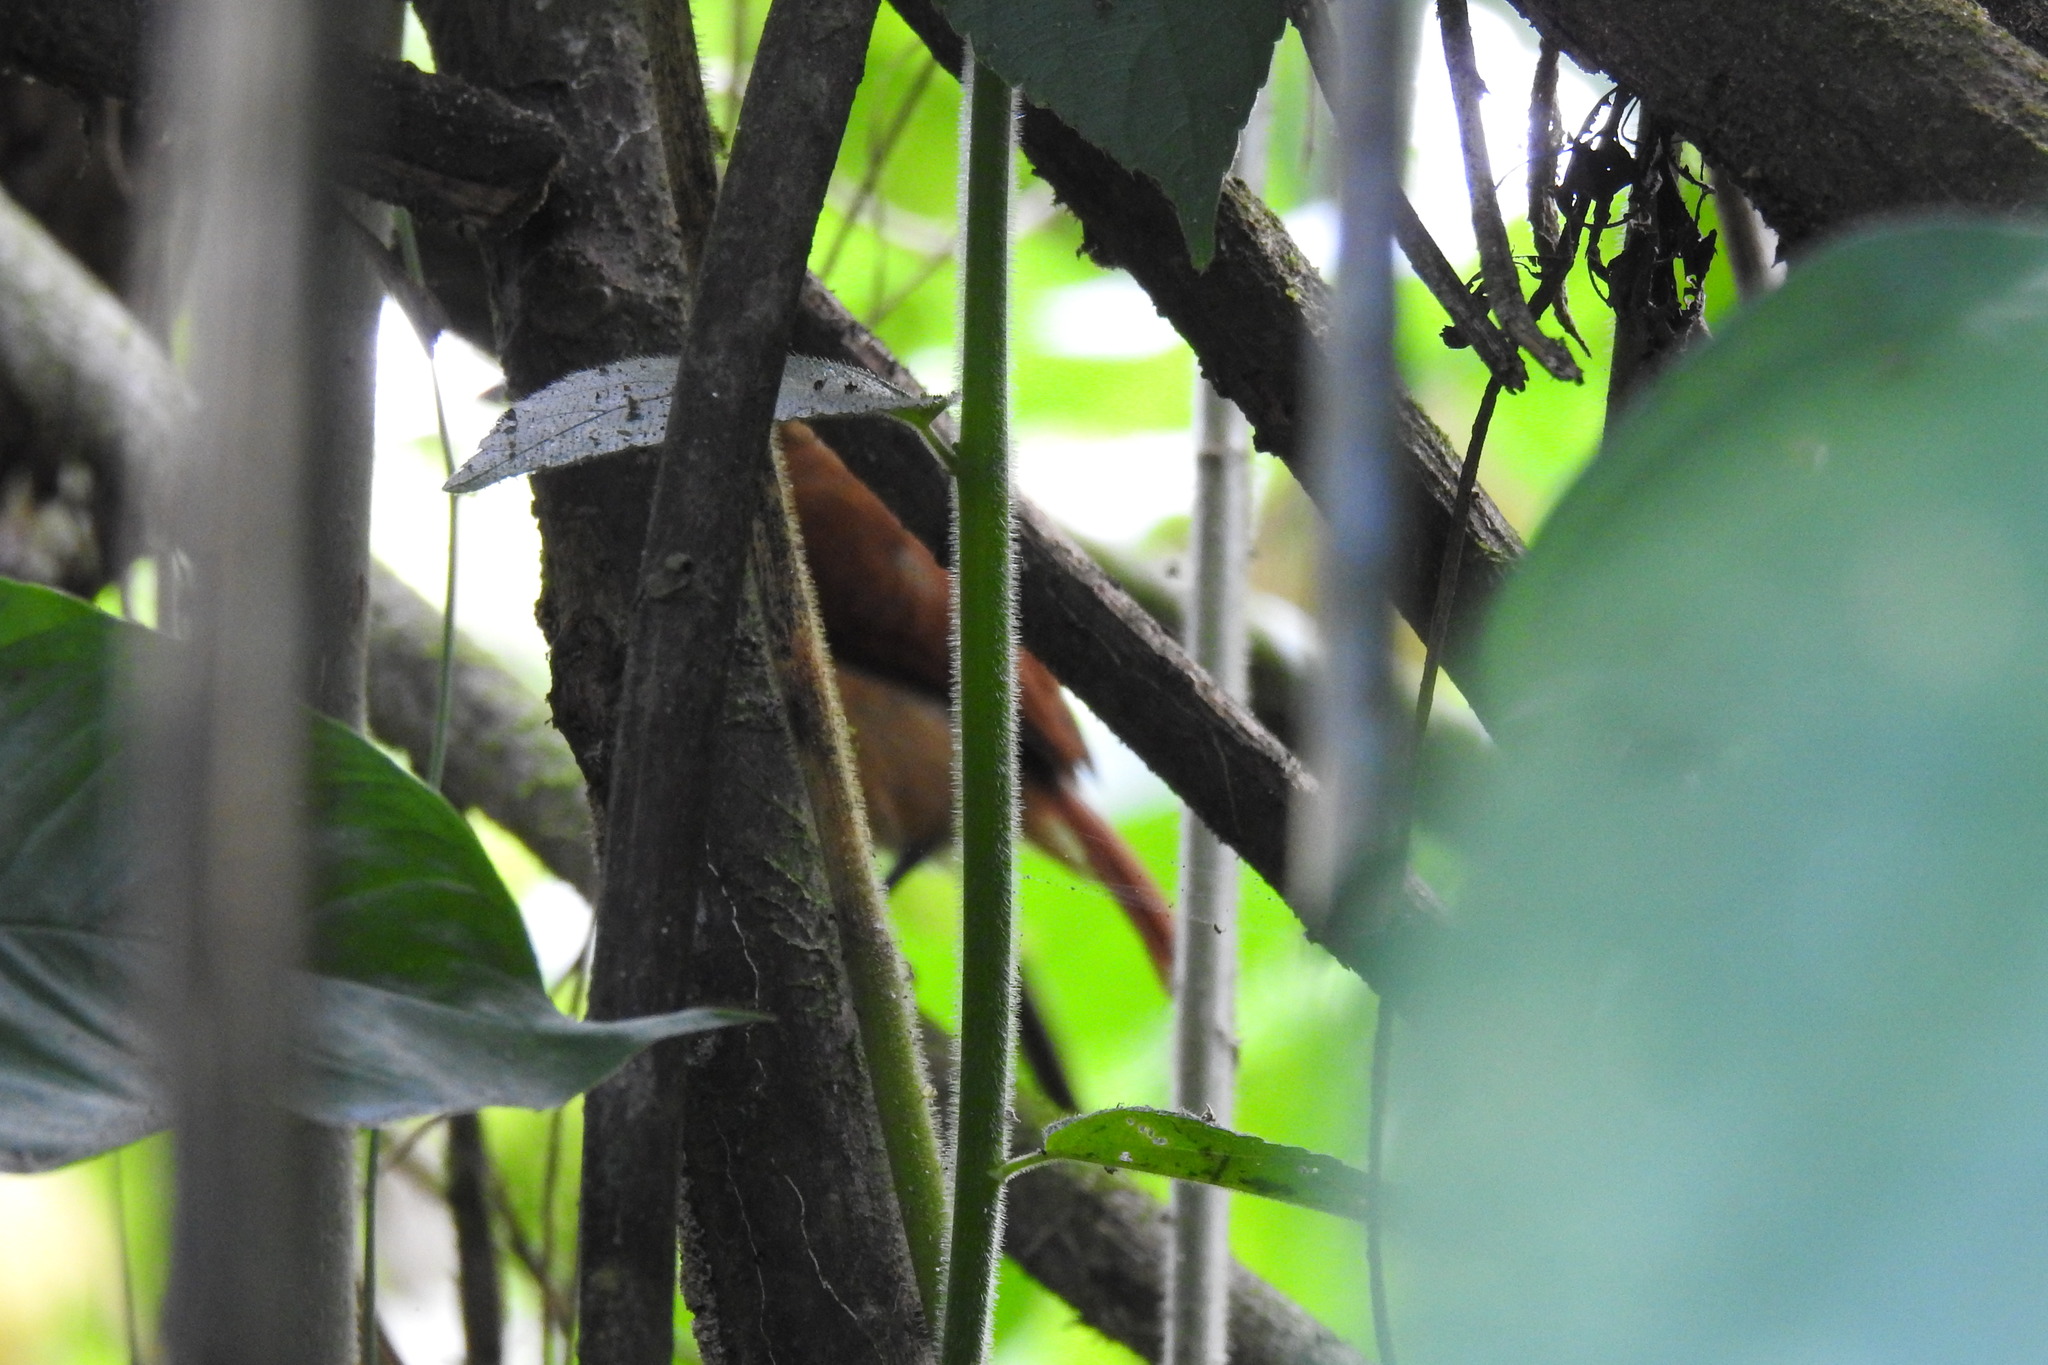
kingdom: Animalia
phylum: Chordata
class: Aves
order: Passeriformes
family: Thamnophilidae
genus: Thamnophilus
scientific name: Thamnophilus doliatus
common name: Barred antshrike
